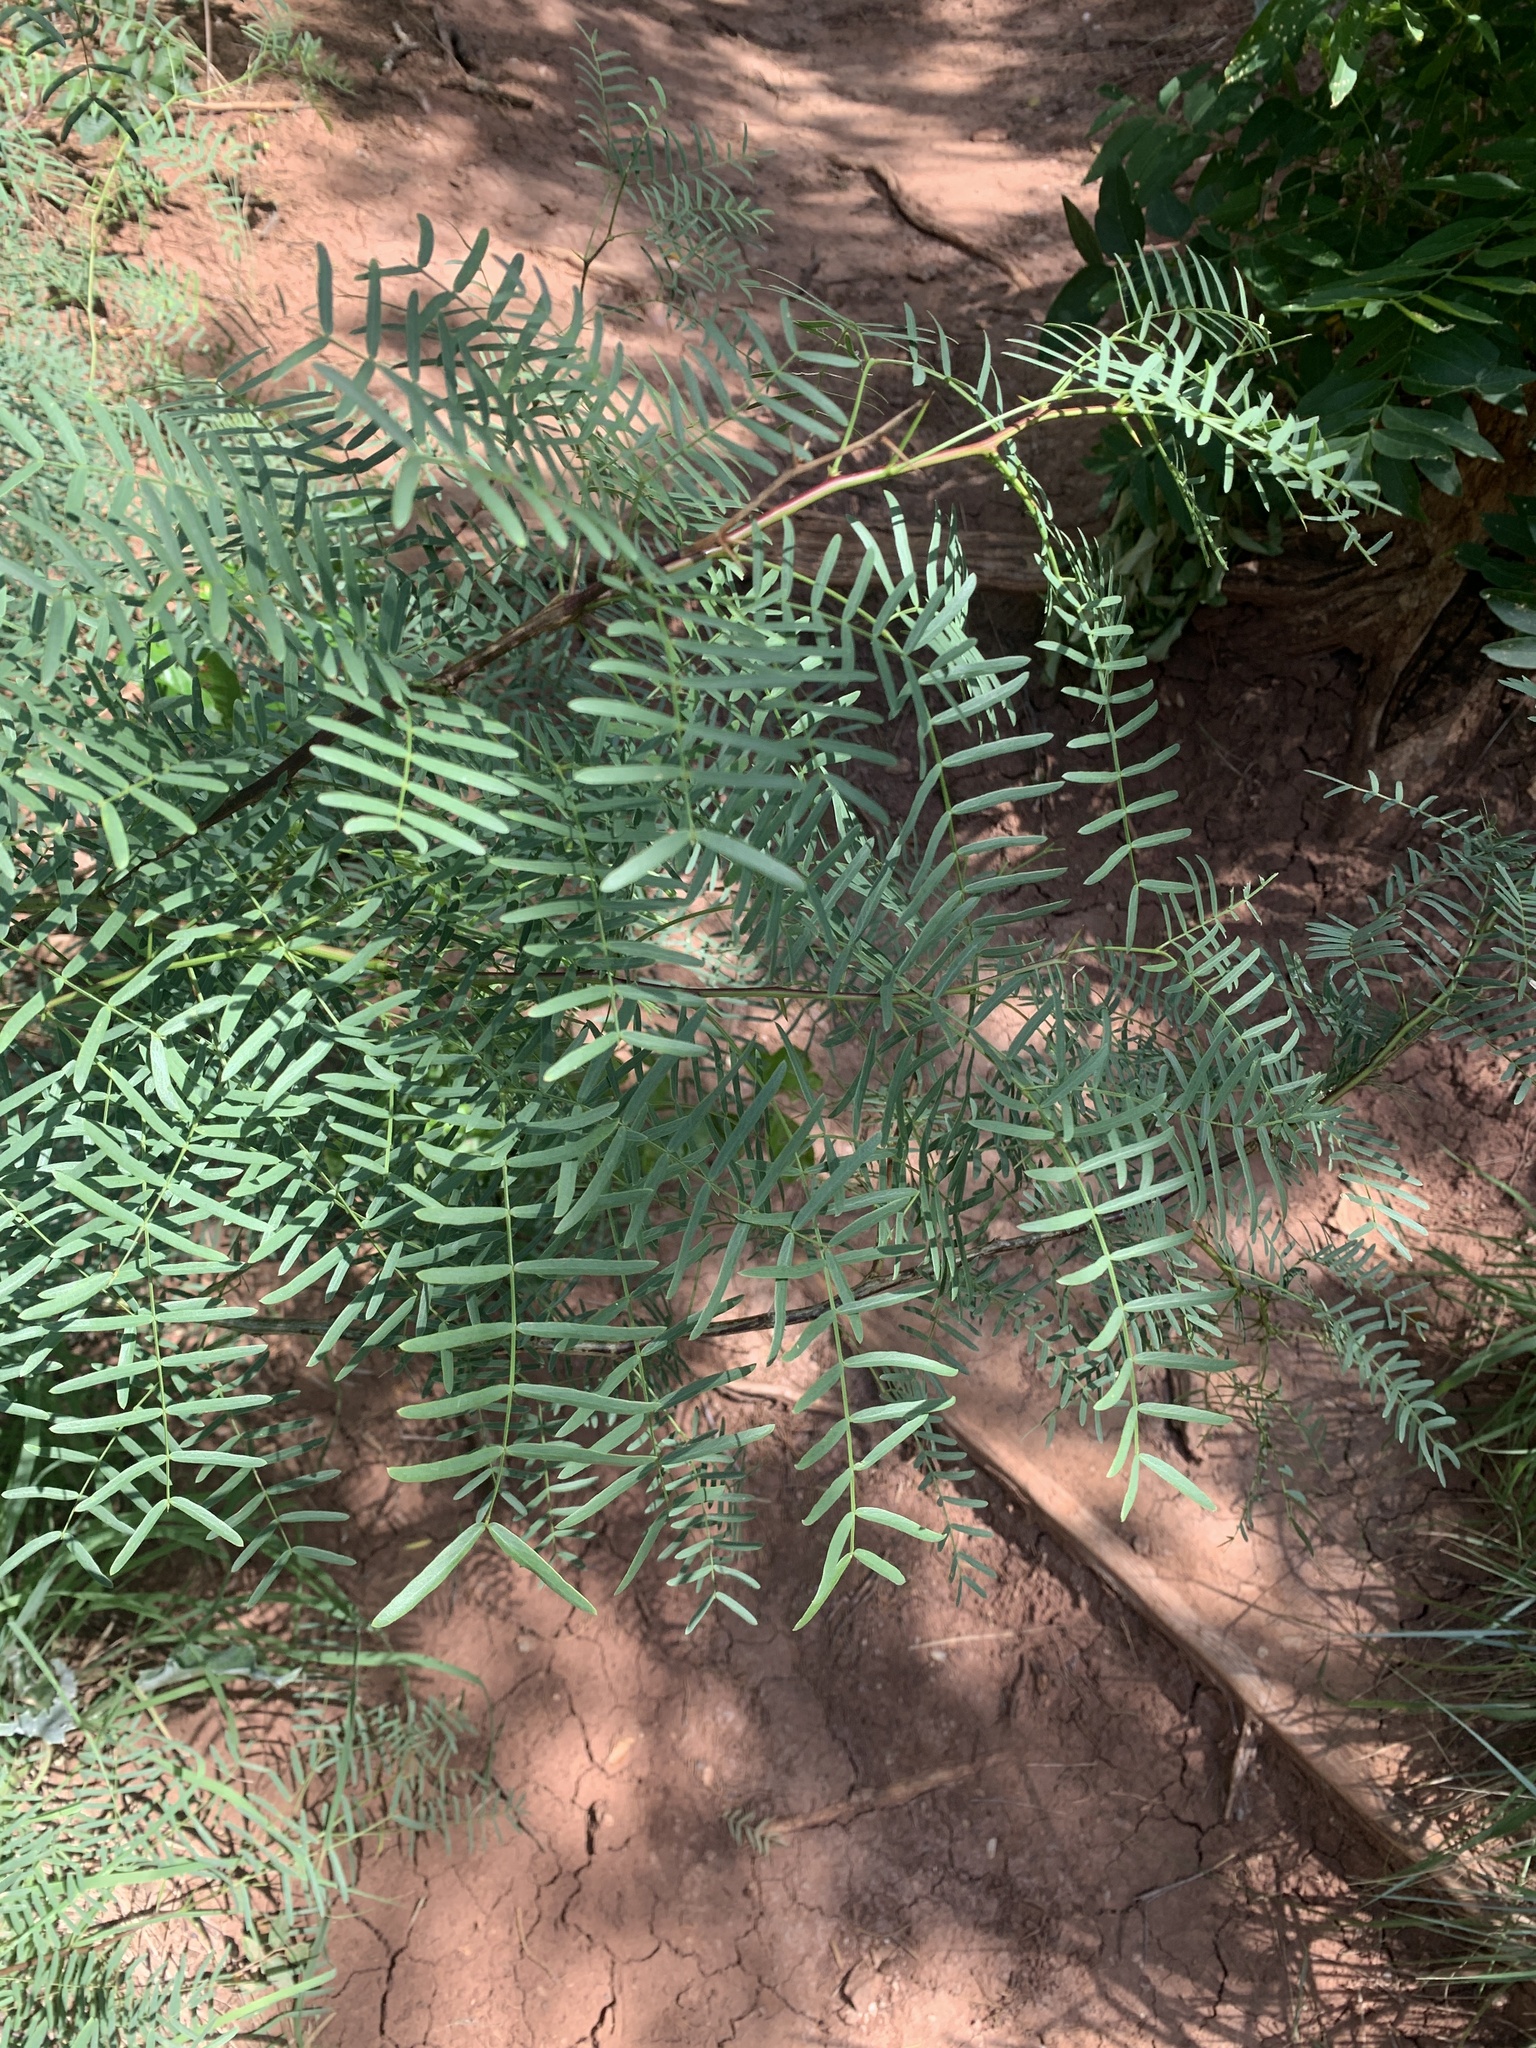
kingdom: Plantae
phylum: Tracheophyta
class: Magnoliopsida
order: Fabales
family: Fabaceae
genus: Prosopis
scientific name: Prosopis glandulosa
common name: Honey mesquite
